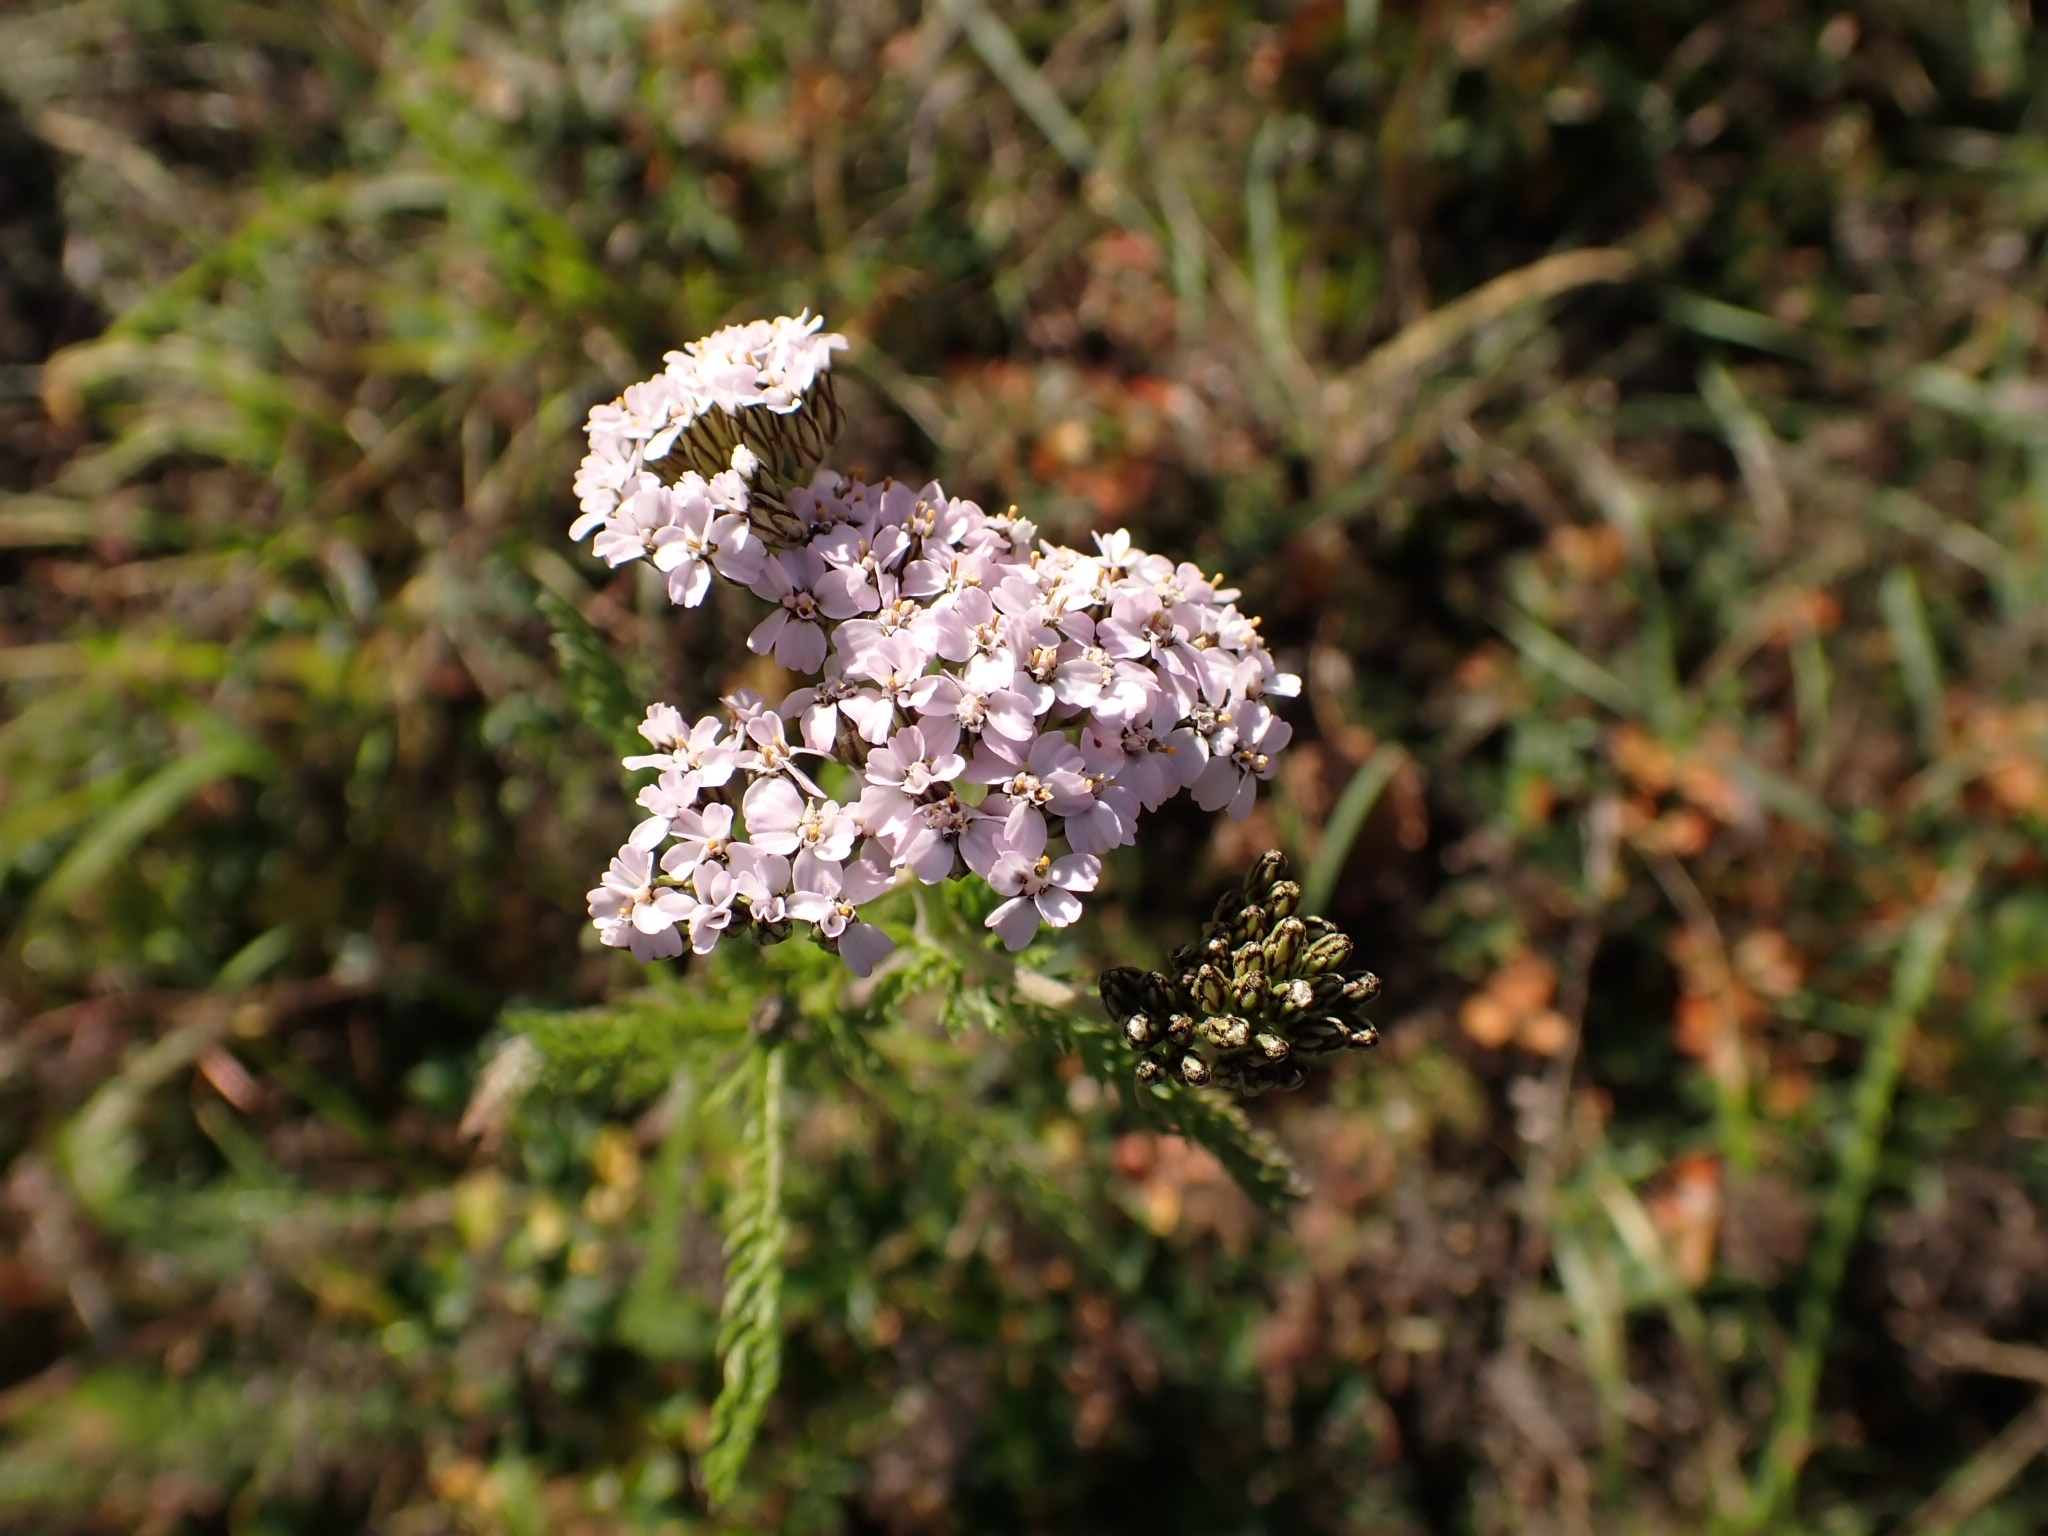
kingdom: Plantae
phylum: Tracheophyta
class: Magnoliopsida
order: Asterales
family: Asteraceae
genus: Achillea
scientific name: Achillea asiatica
